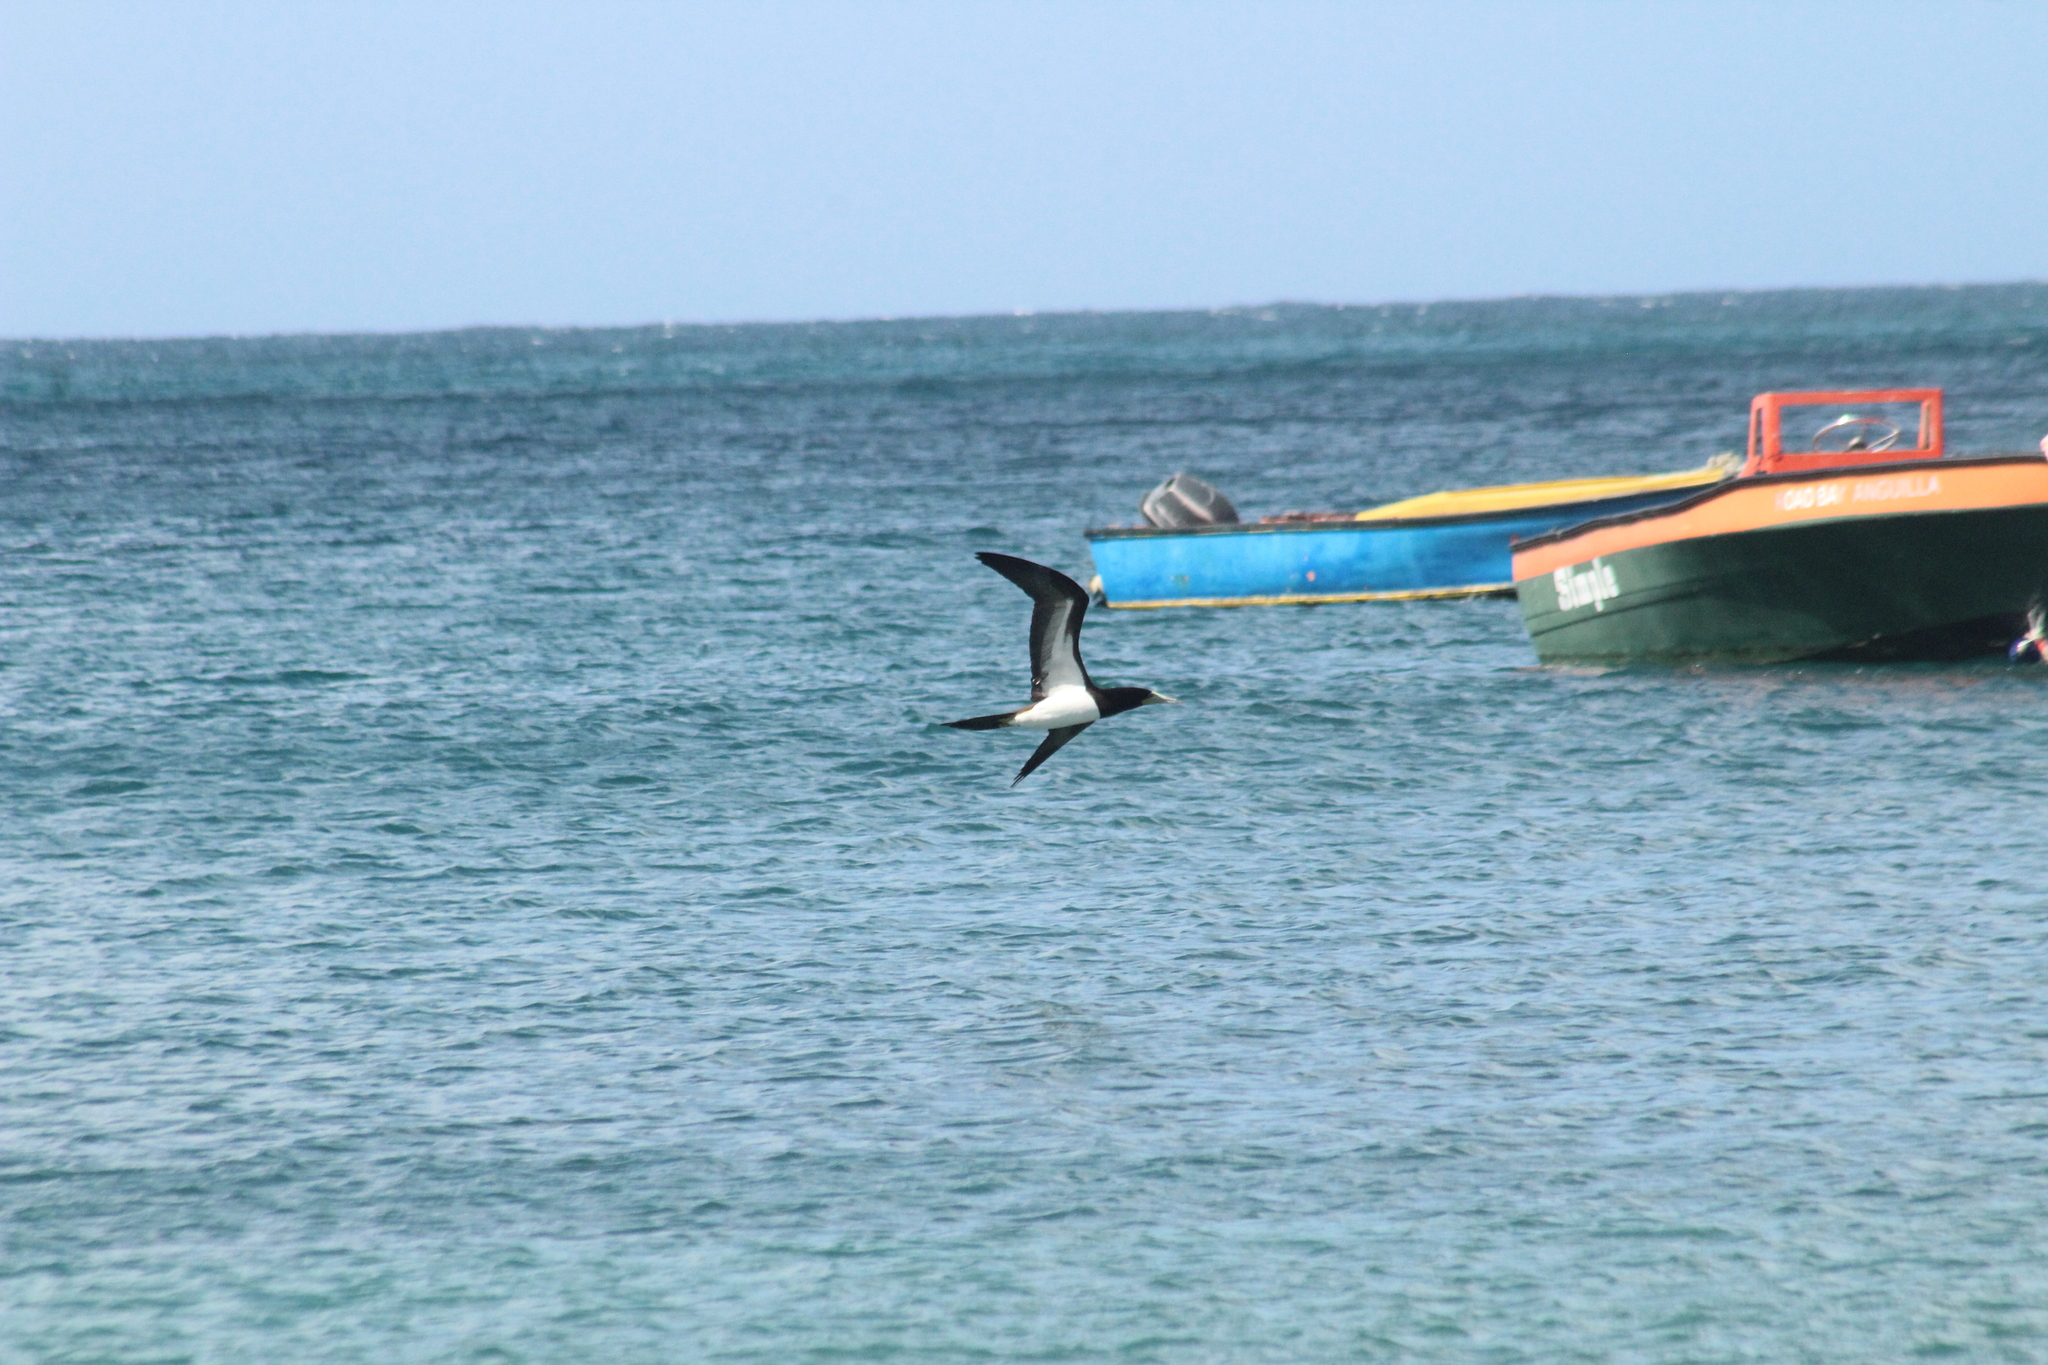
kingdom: Animalia
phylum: Chordata
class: Aves
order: Suliformes
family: Sulidae
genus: Sula
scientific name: Sula leucogaster
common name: Brown booby
